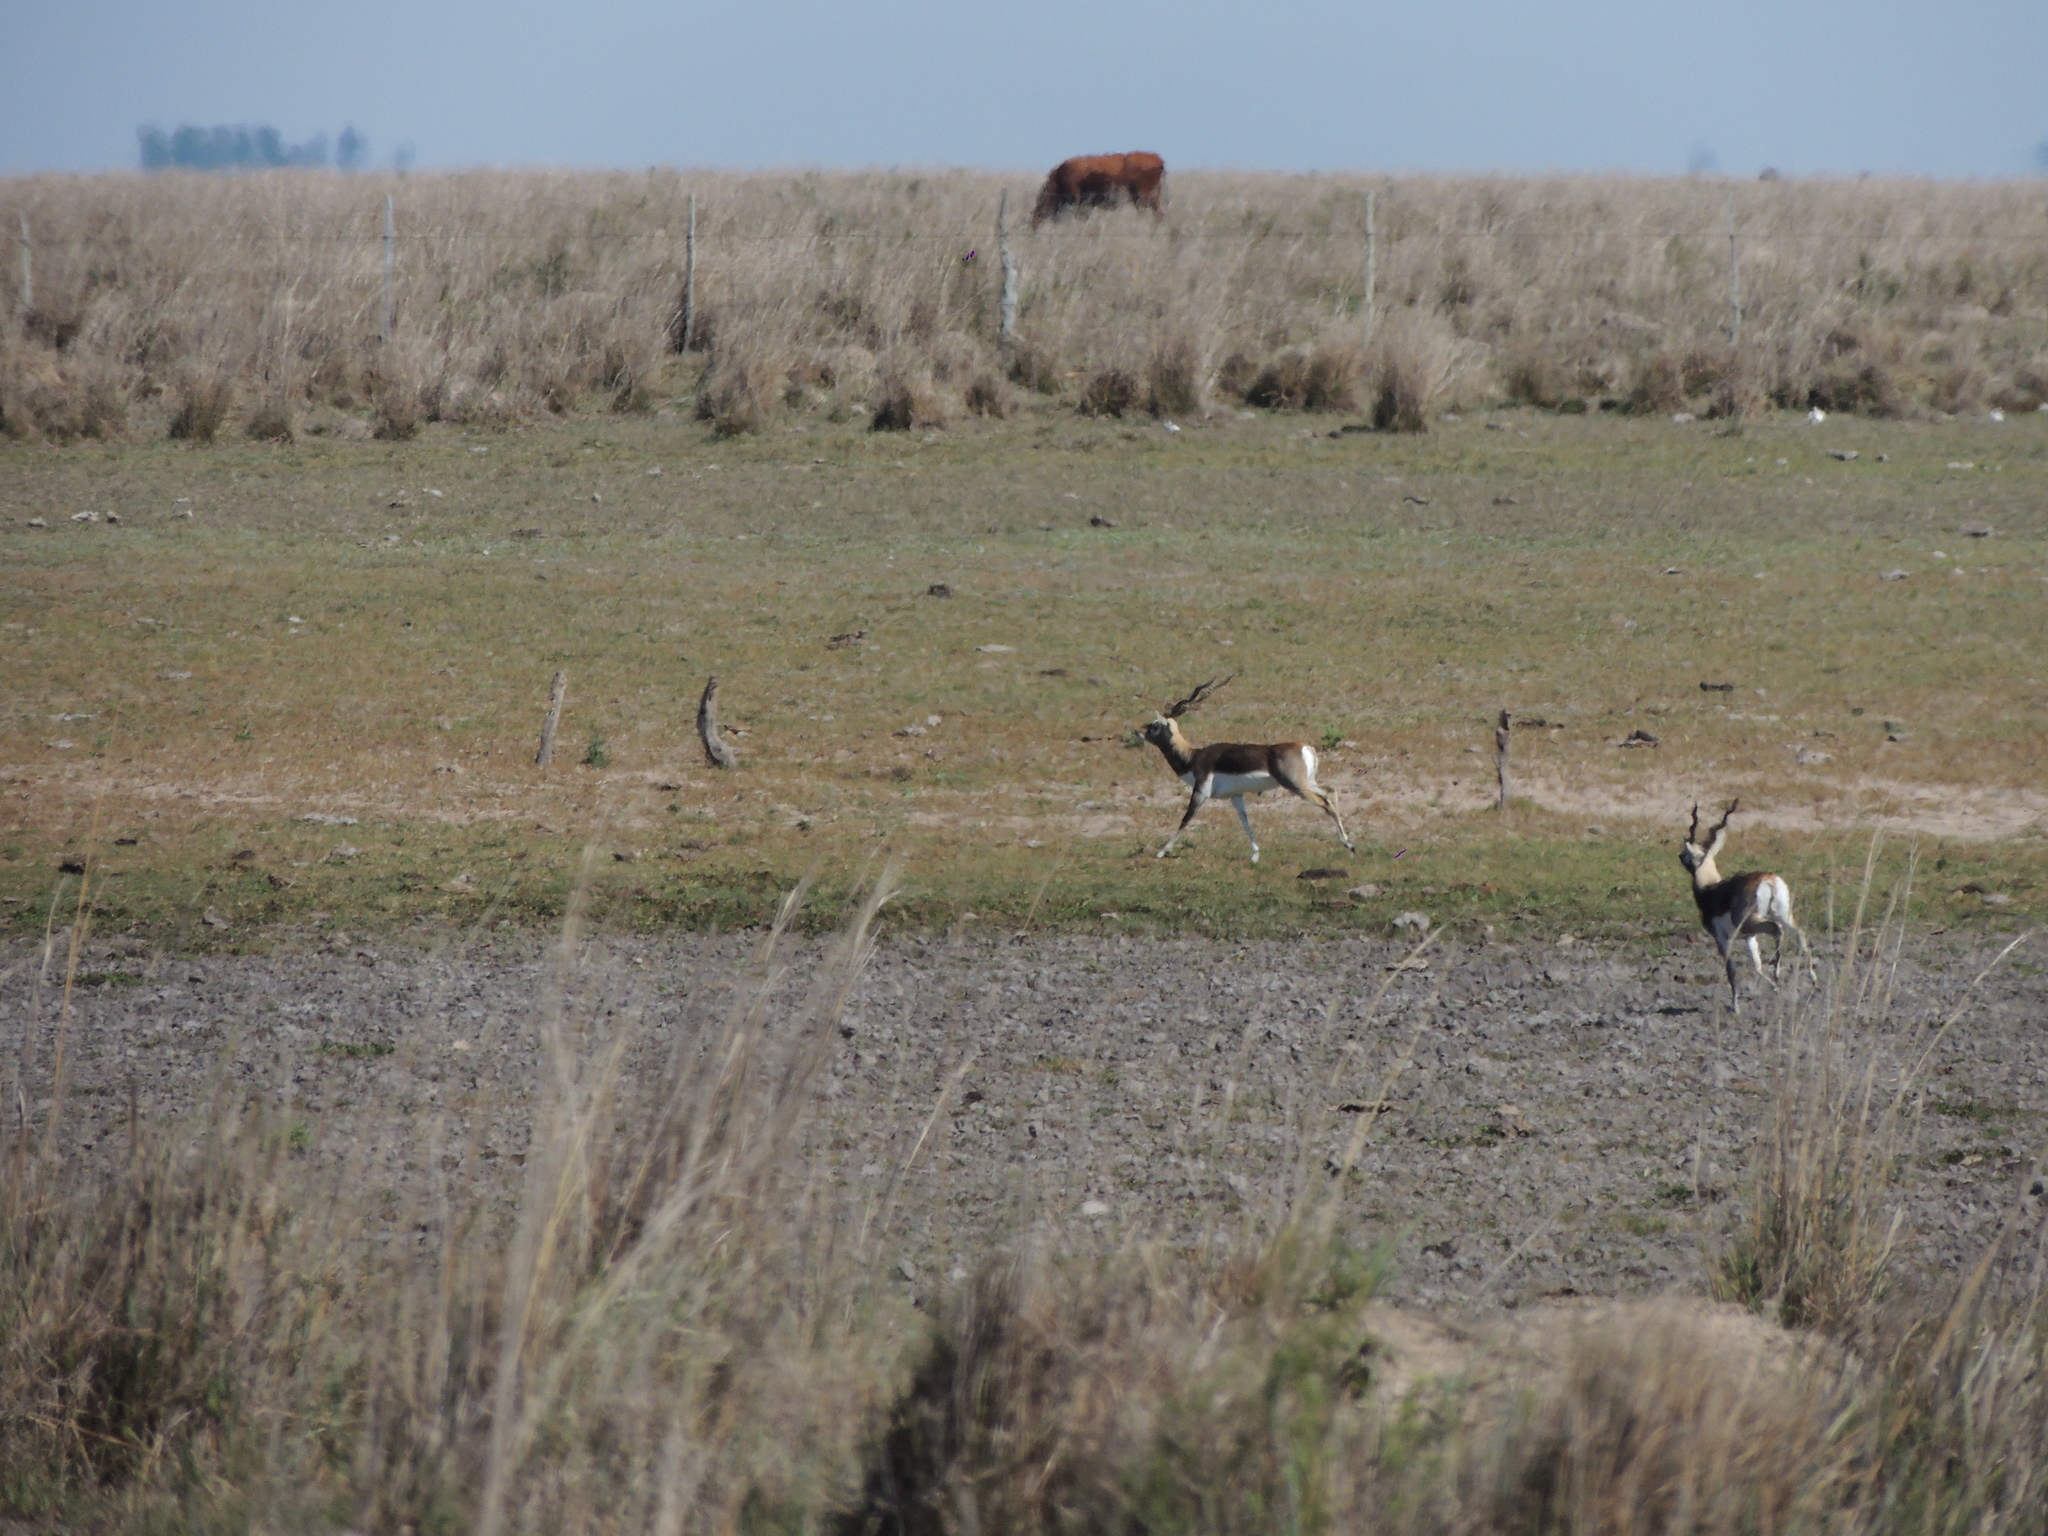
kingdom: Animalia
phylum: Chordata
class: Mammalia
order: Artiodactyla
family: Bovidae
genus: Antilope
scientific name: Antilope cervicapra
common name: Blackbuck
